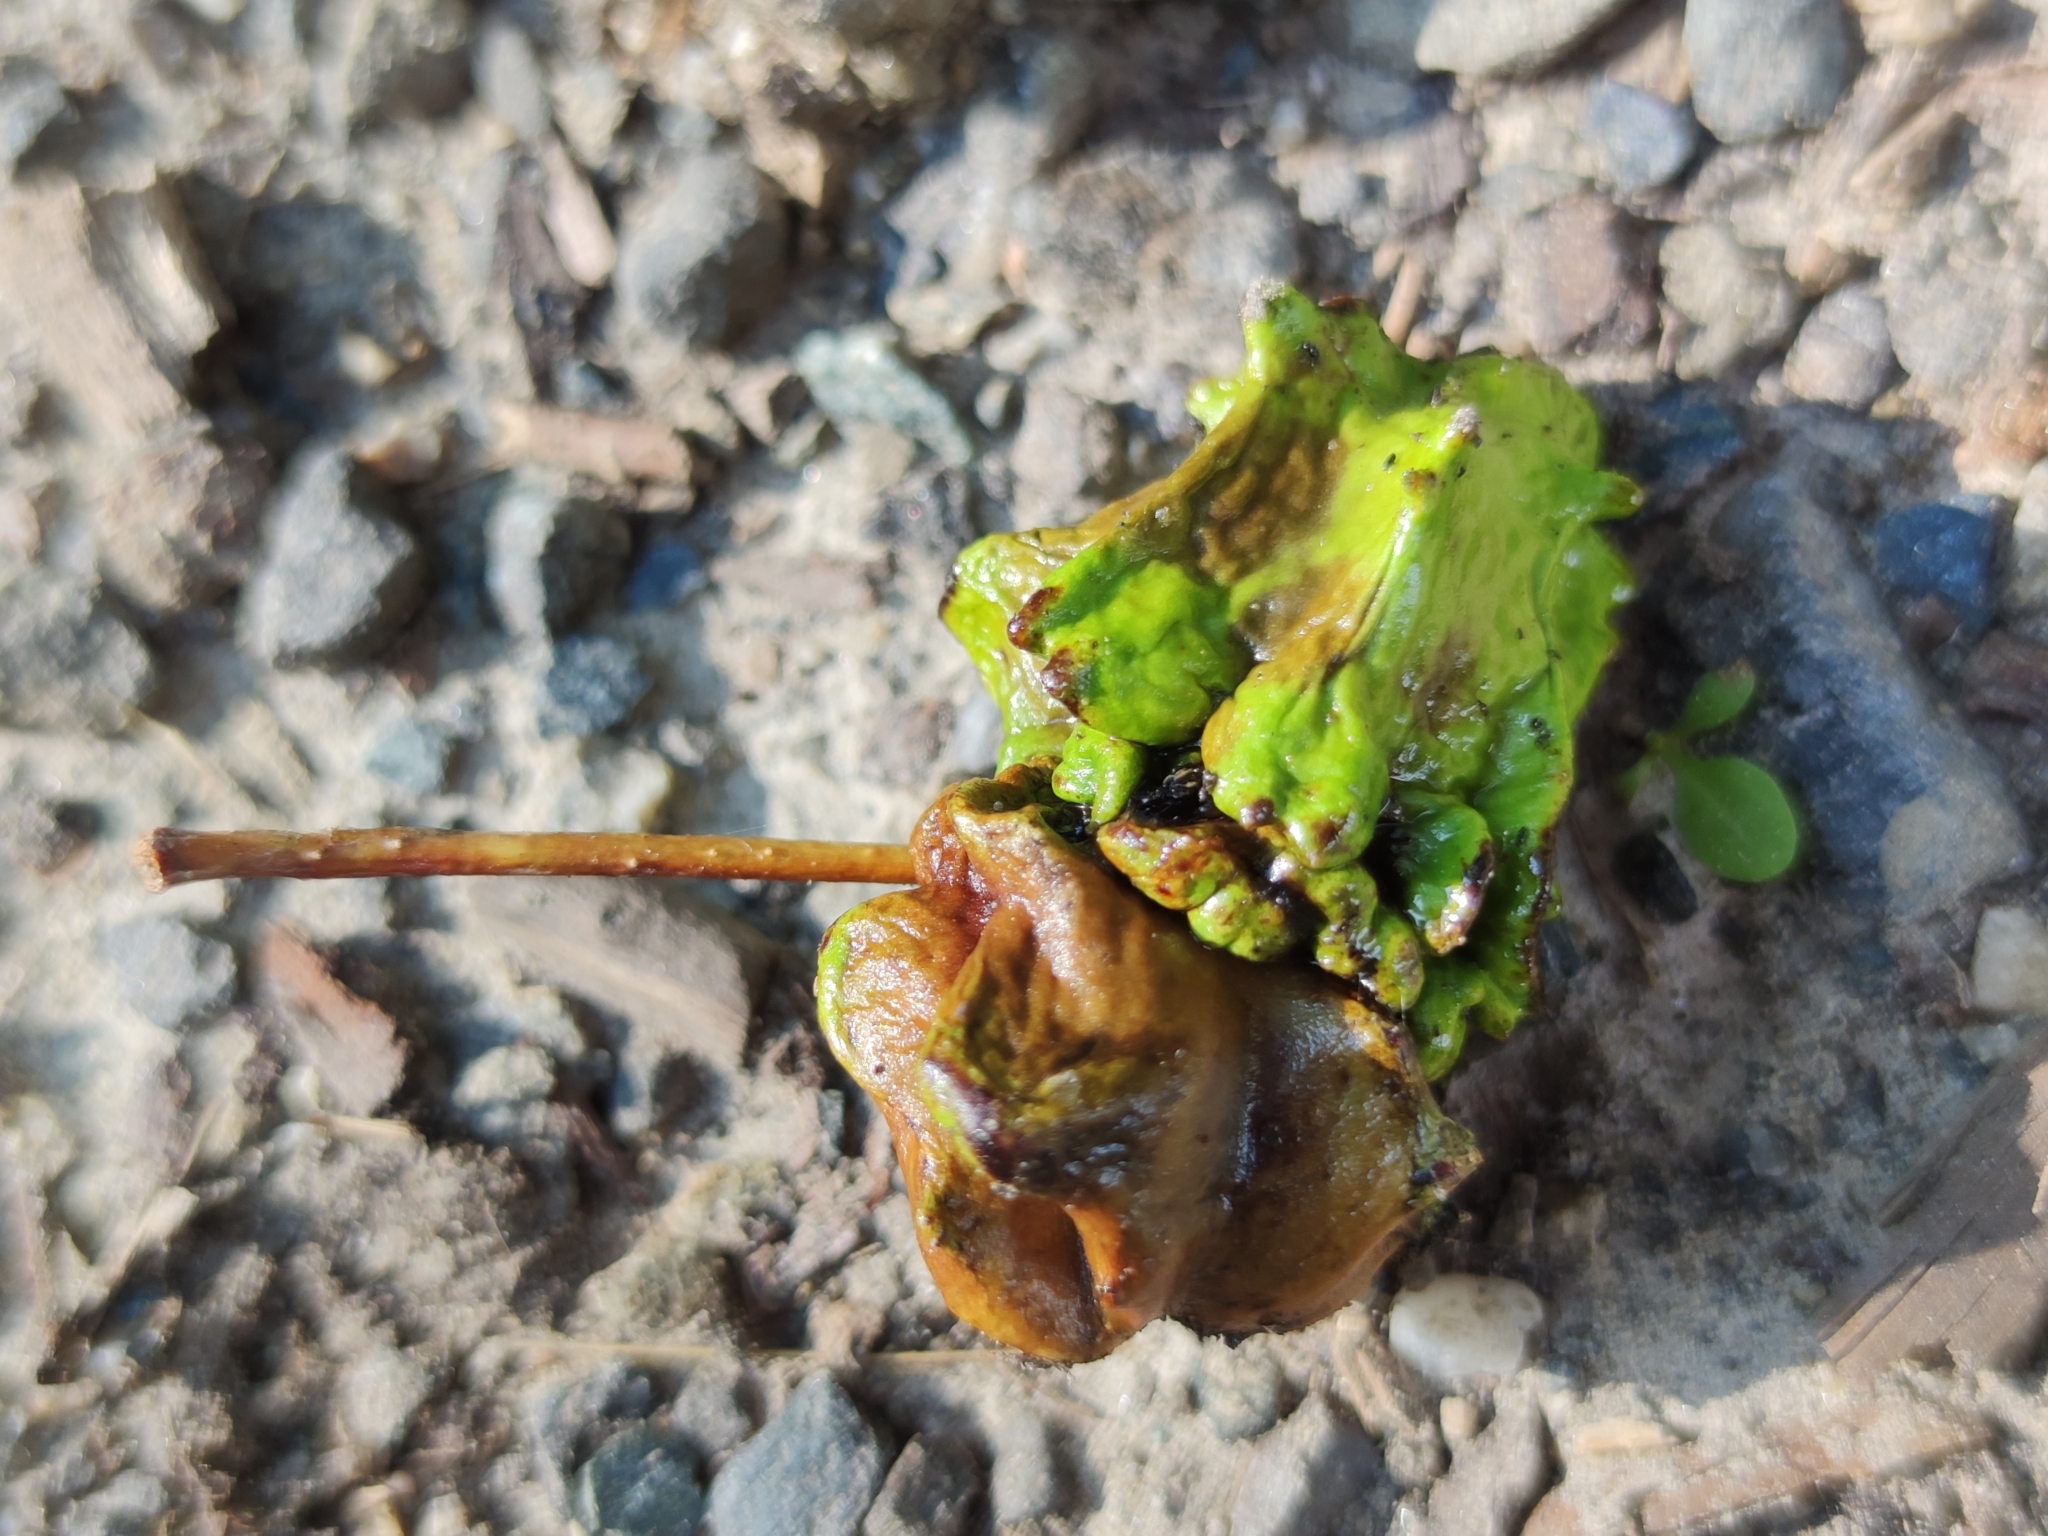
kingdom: Animalia
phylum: Arthropoda
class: Insecta
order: Hymenoptera
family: Cynipidae
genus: Andricus
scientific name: Andricus quercuscalicis
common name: Knopper gall
